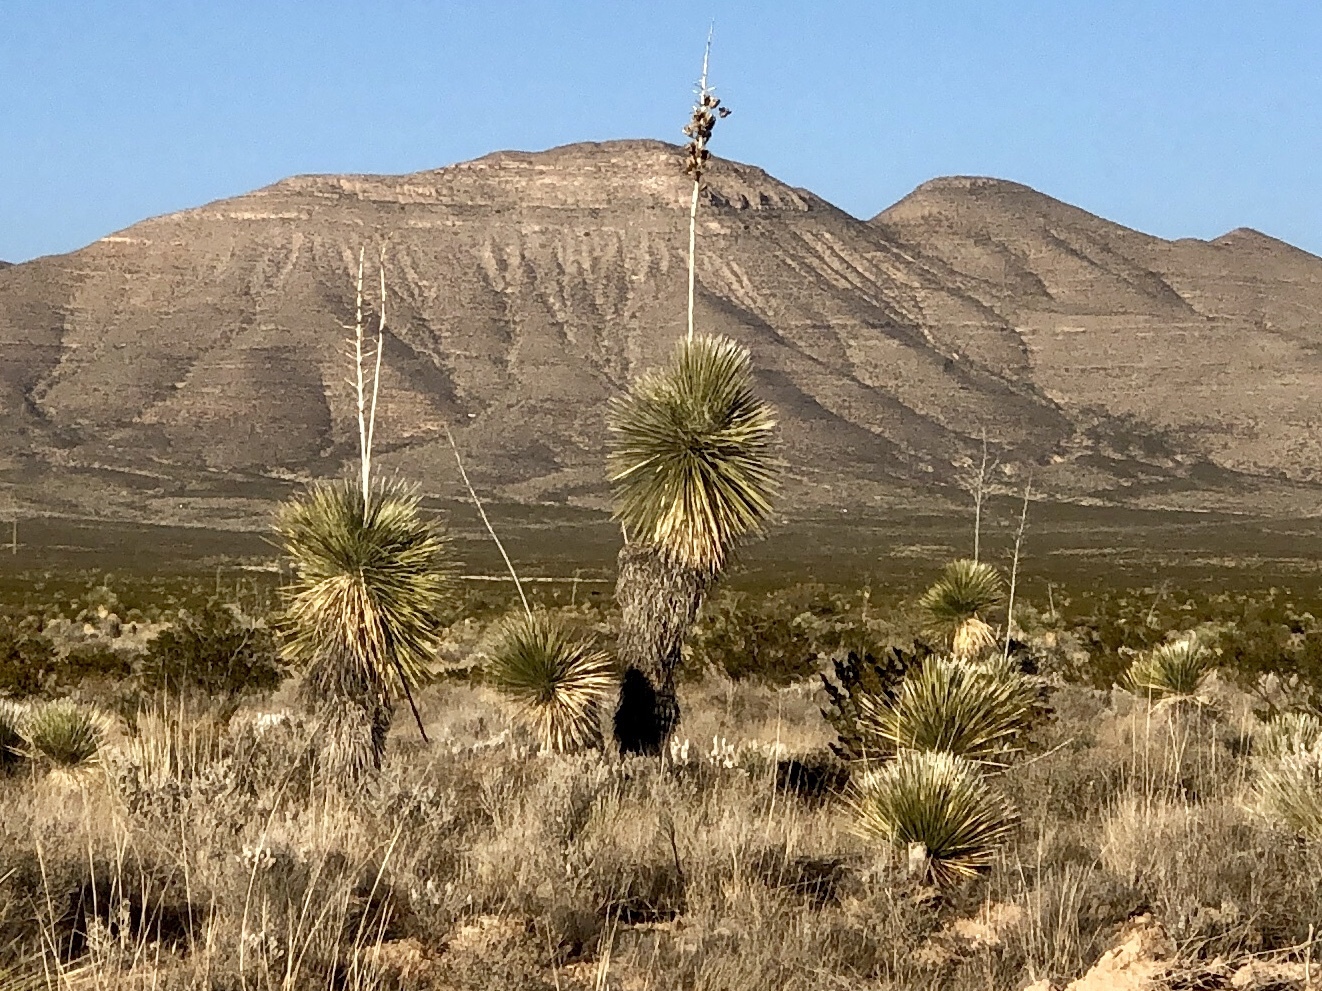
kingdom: Plantae
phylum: Tracheophyta
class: Liliopsida
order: Asparagales
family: Asparagaceae
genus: Yucca
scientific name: Yucca elata
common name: Palmella
